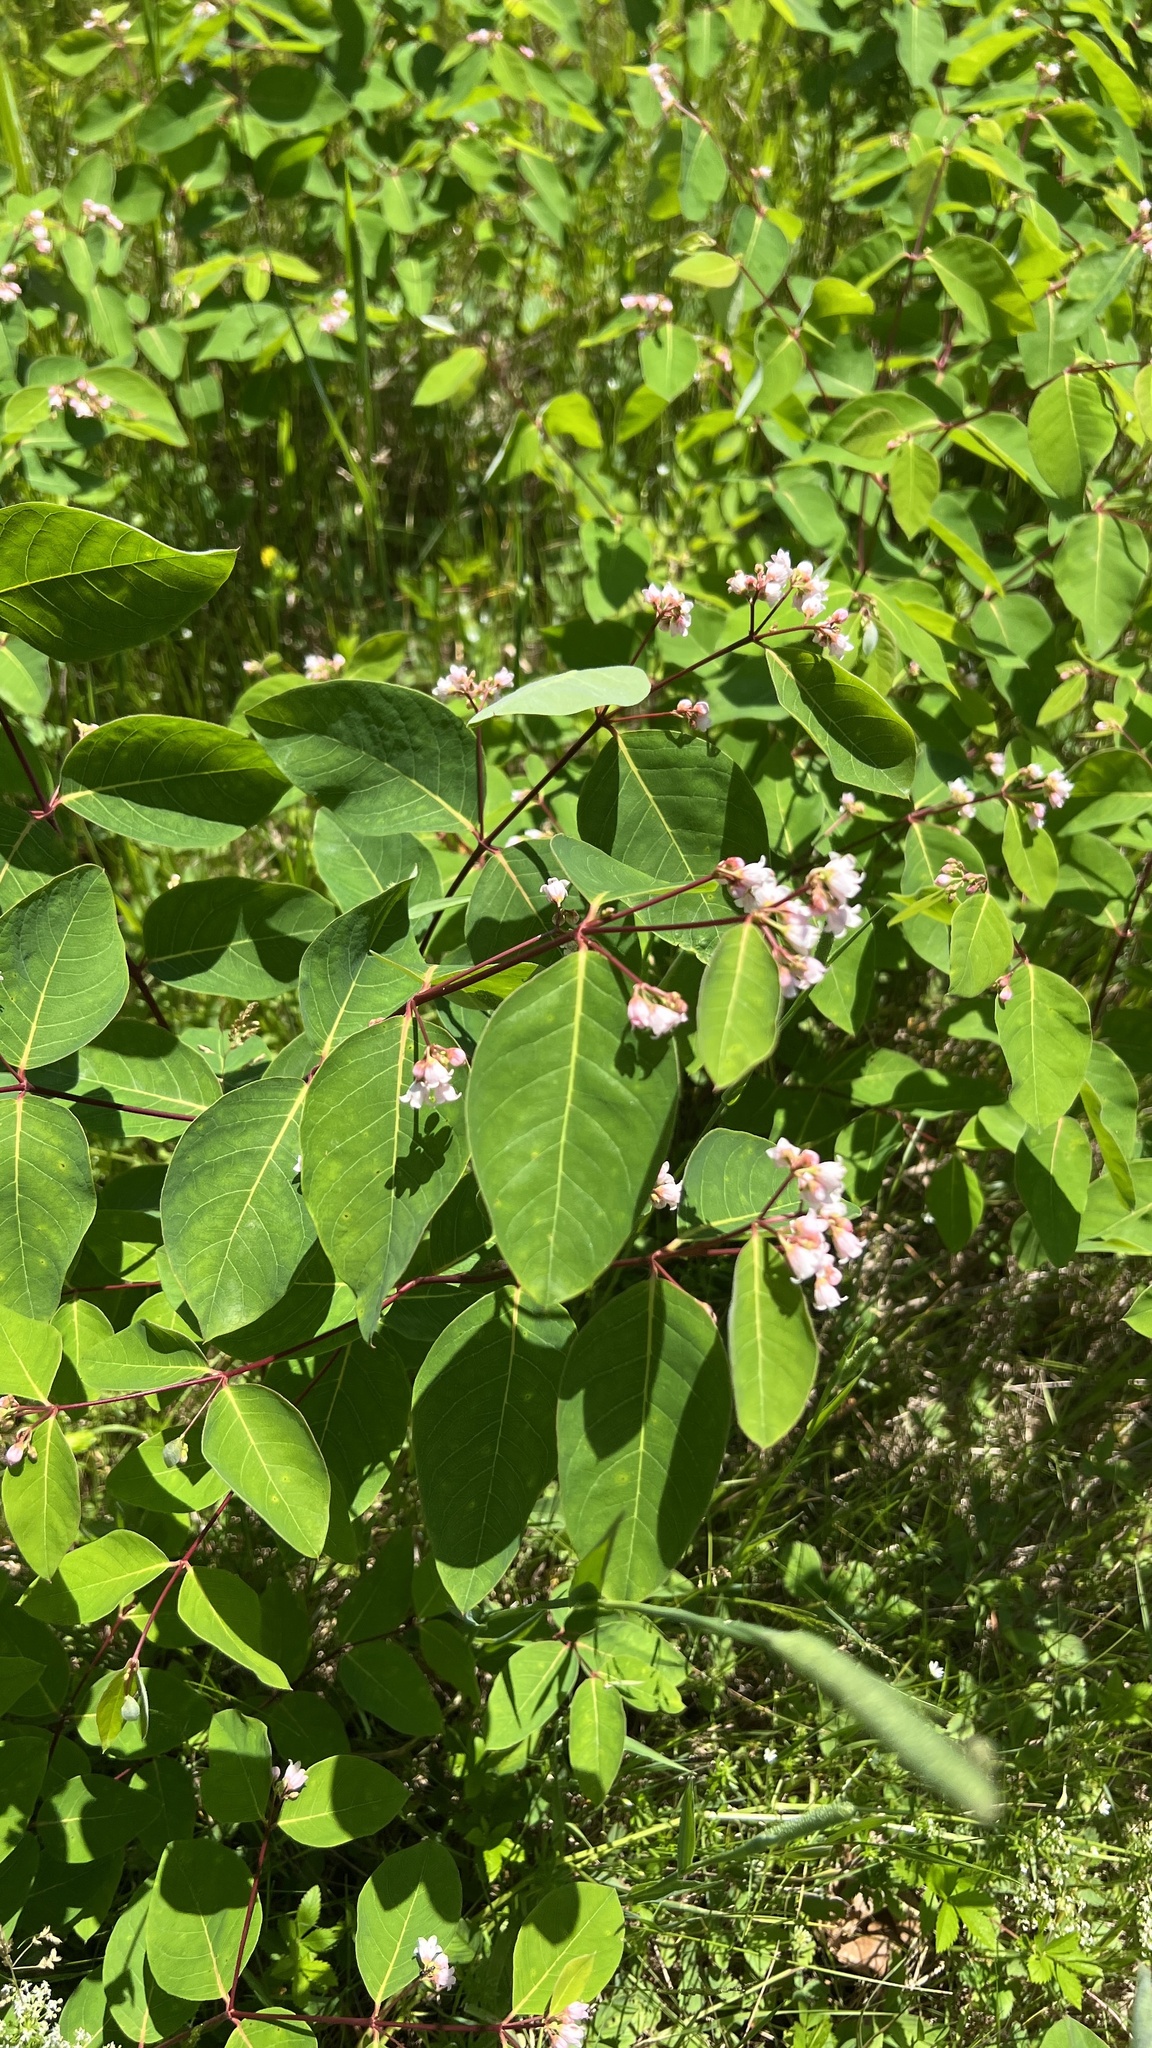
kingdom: Plantae
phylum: Tracheophyta
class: Magnoliopsida
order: Gentianales
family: Apocynaceae
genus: Apocynum
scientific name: Apocynum androsaemifolium
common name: Spreading dogbane
